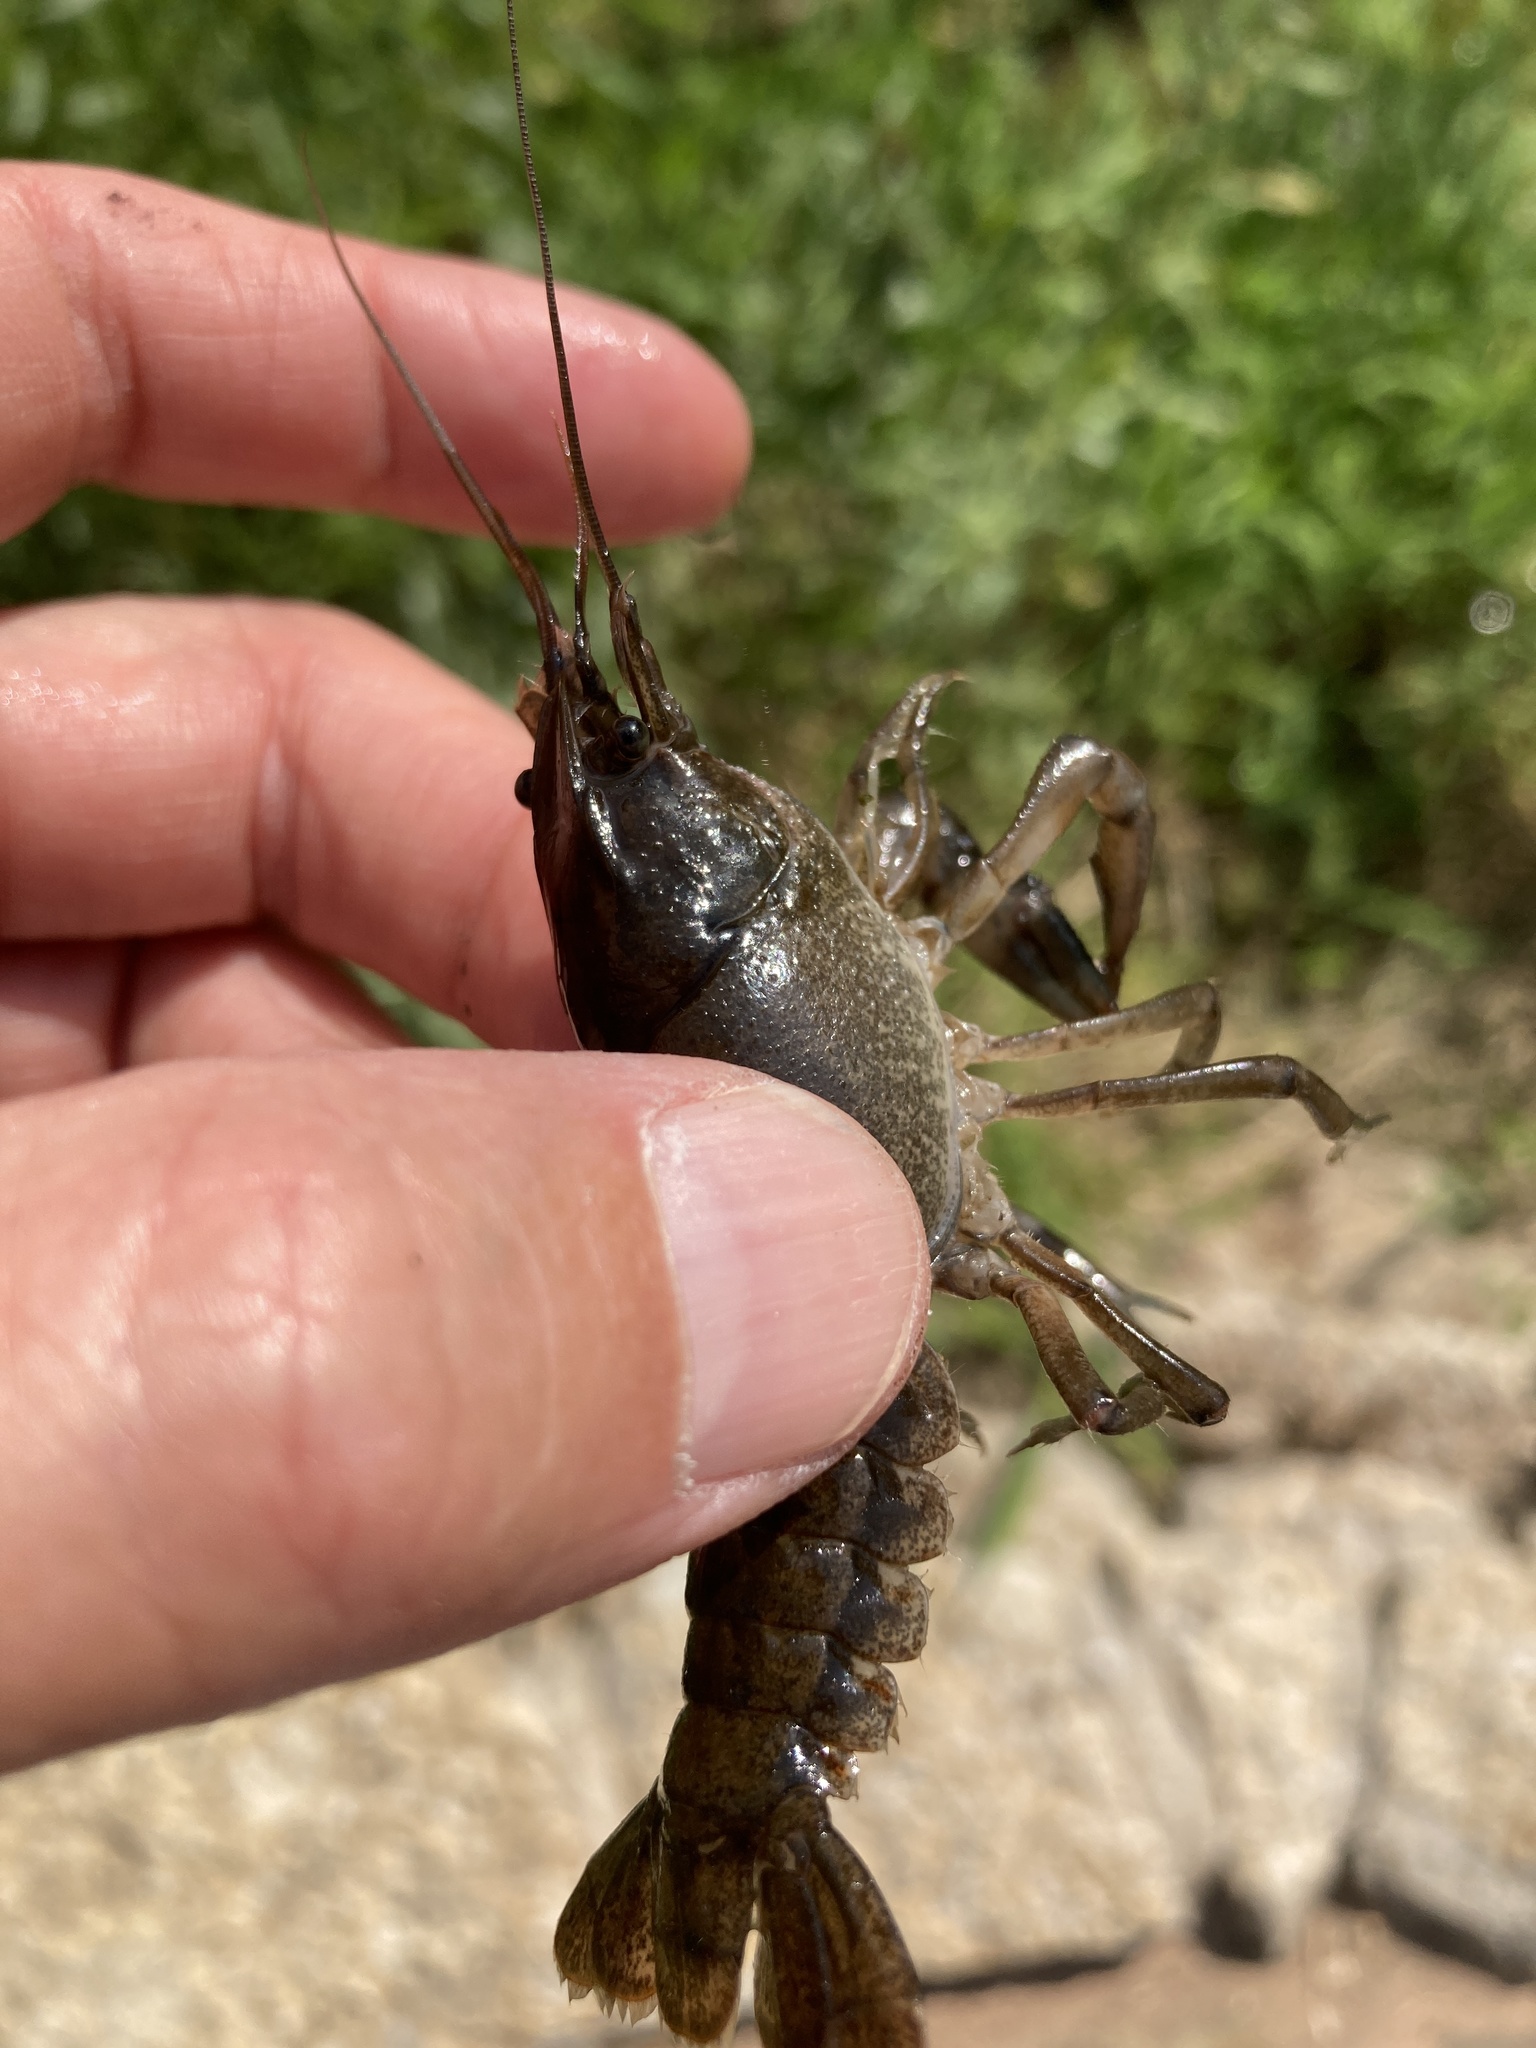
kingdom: Animalia
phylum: Arthropoda
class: Malacostraca
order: Decapoda
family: Cambaridae
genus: Procambarus
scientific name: Procambarus simulans
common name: Southern plains crayfish
